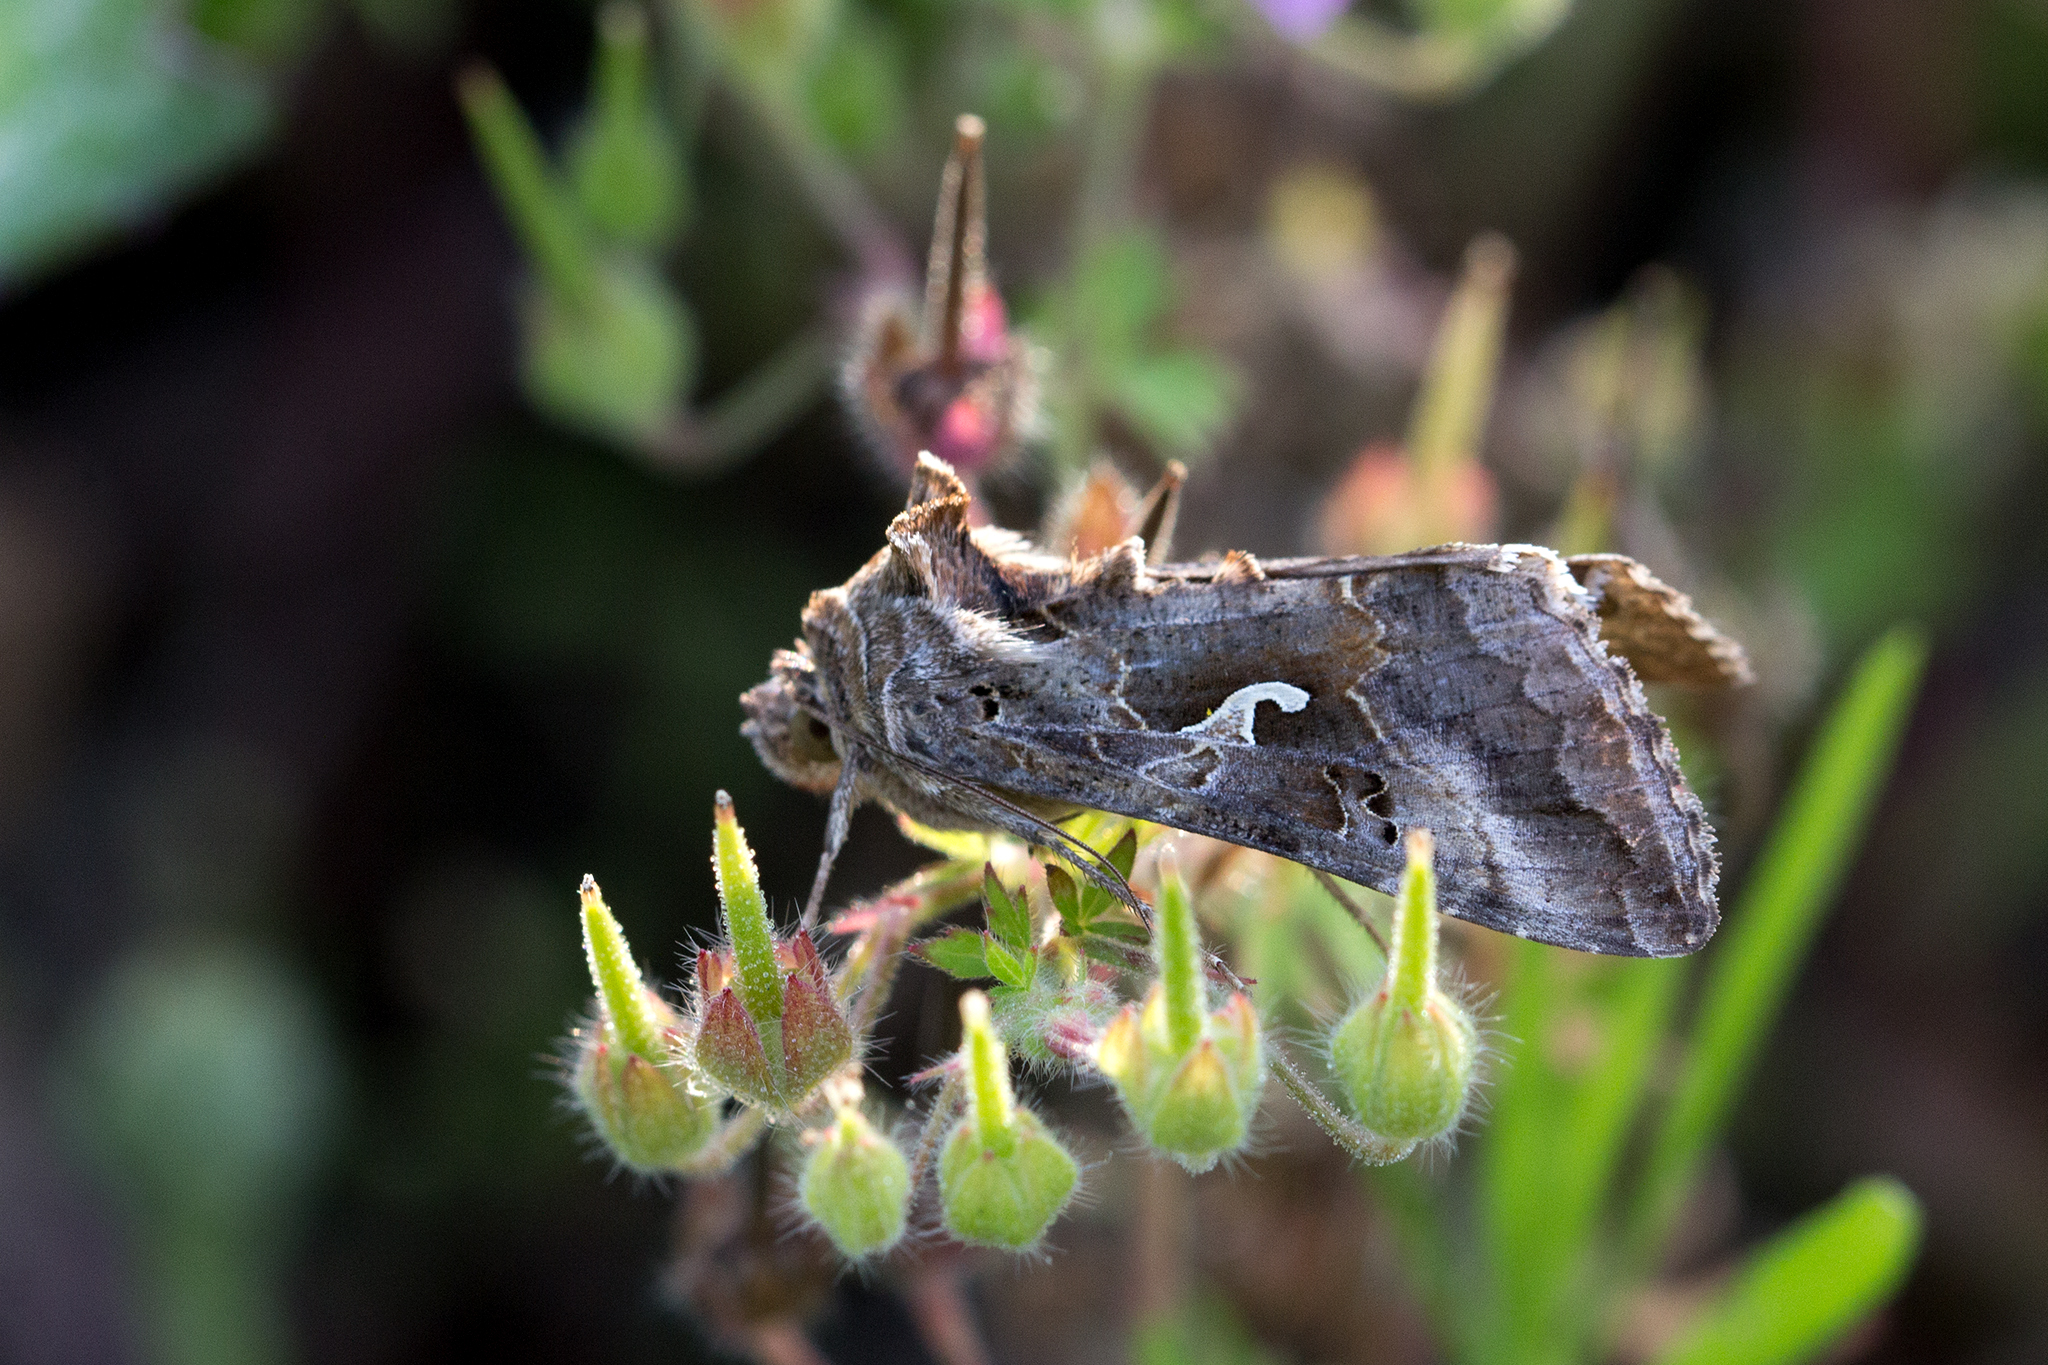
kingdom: Animalia
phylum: Arthropoda
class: Insecta
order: Lepidoptera
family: Noctuidae
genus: Autographa
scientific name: Autographa gamma
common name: Silver y
